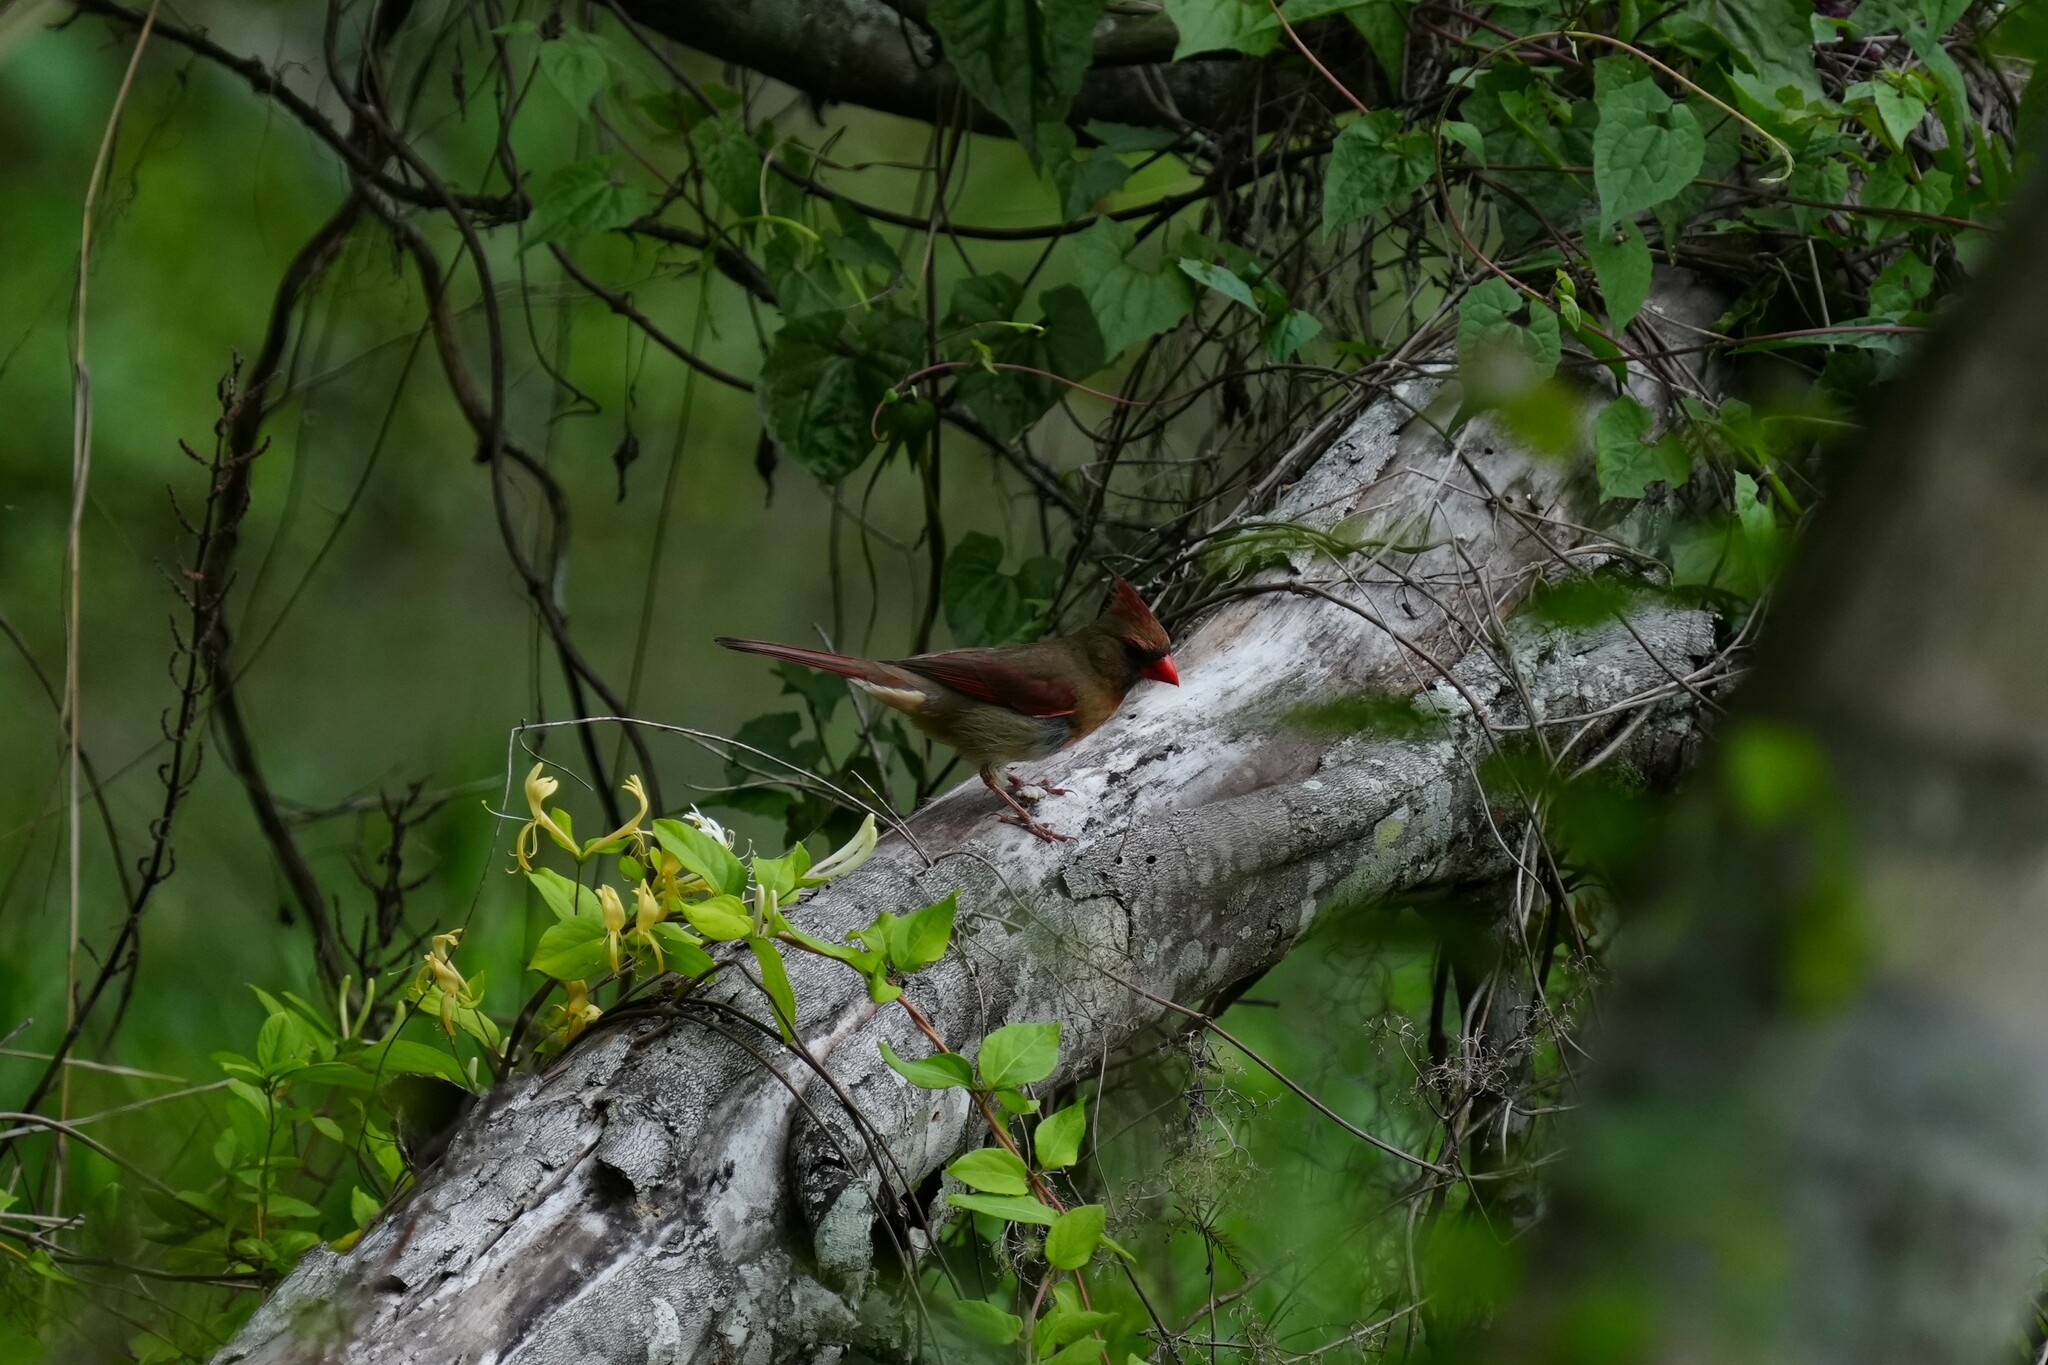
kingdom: Animalia
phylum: Chordata
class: Aves
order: Passeriformes
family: Cardinalidae
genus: Cardinalis
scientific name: Cardinalis cardinalis
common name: Northern cardinal
